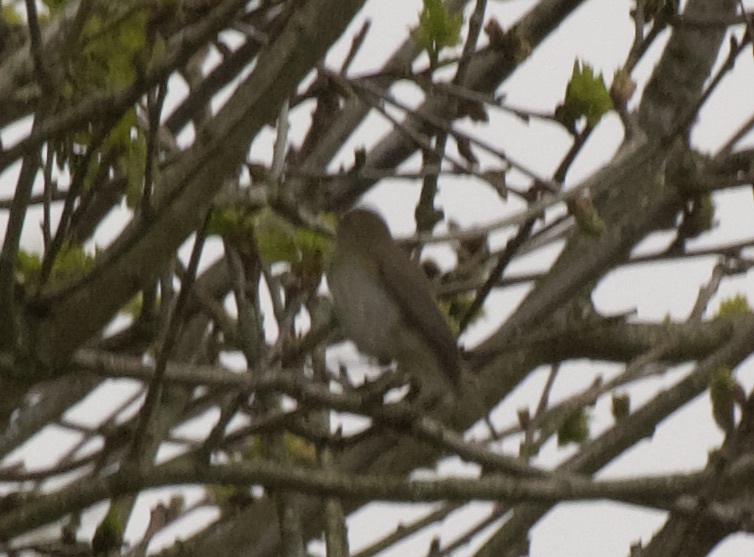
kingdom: Animalia
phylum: Chordata
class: Aves
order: Passeriformes
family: Phylloscopidae
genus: Phylloscopus
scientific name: Phylloscopus collybita
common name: Common chiffchaff
